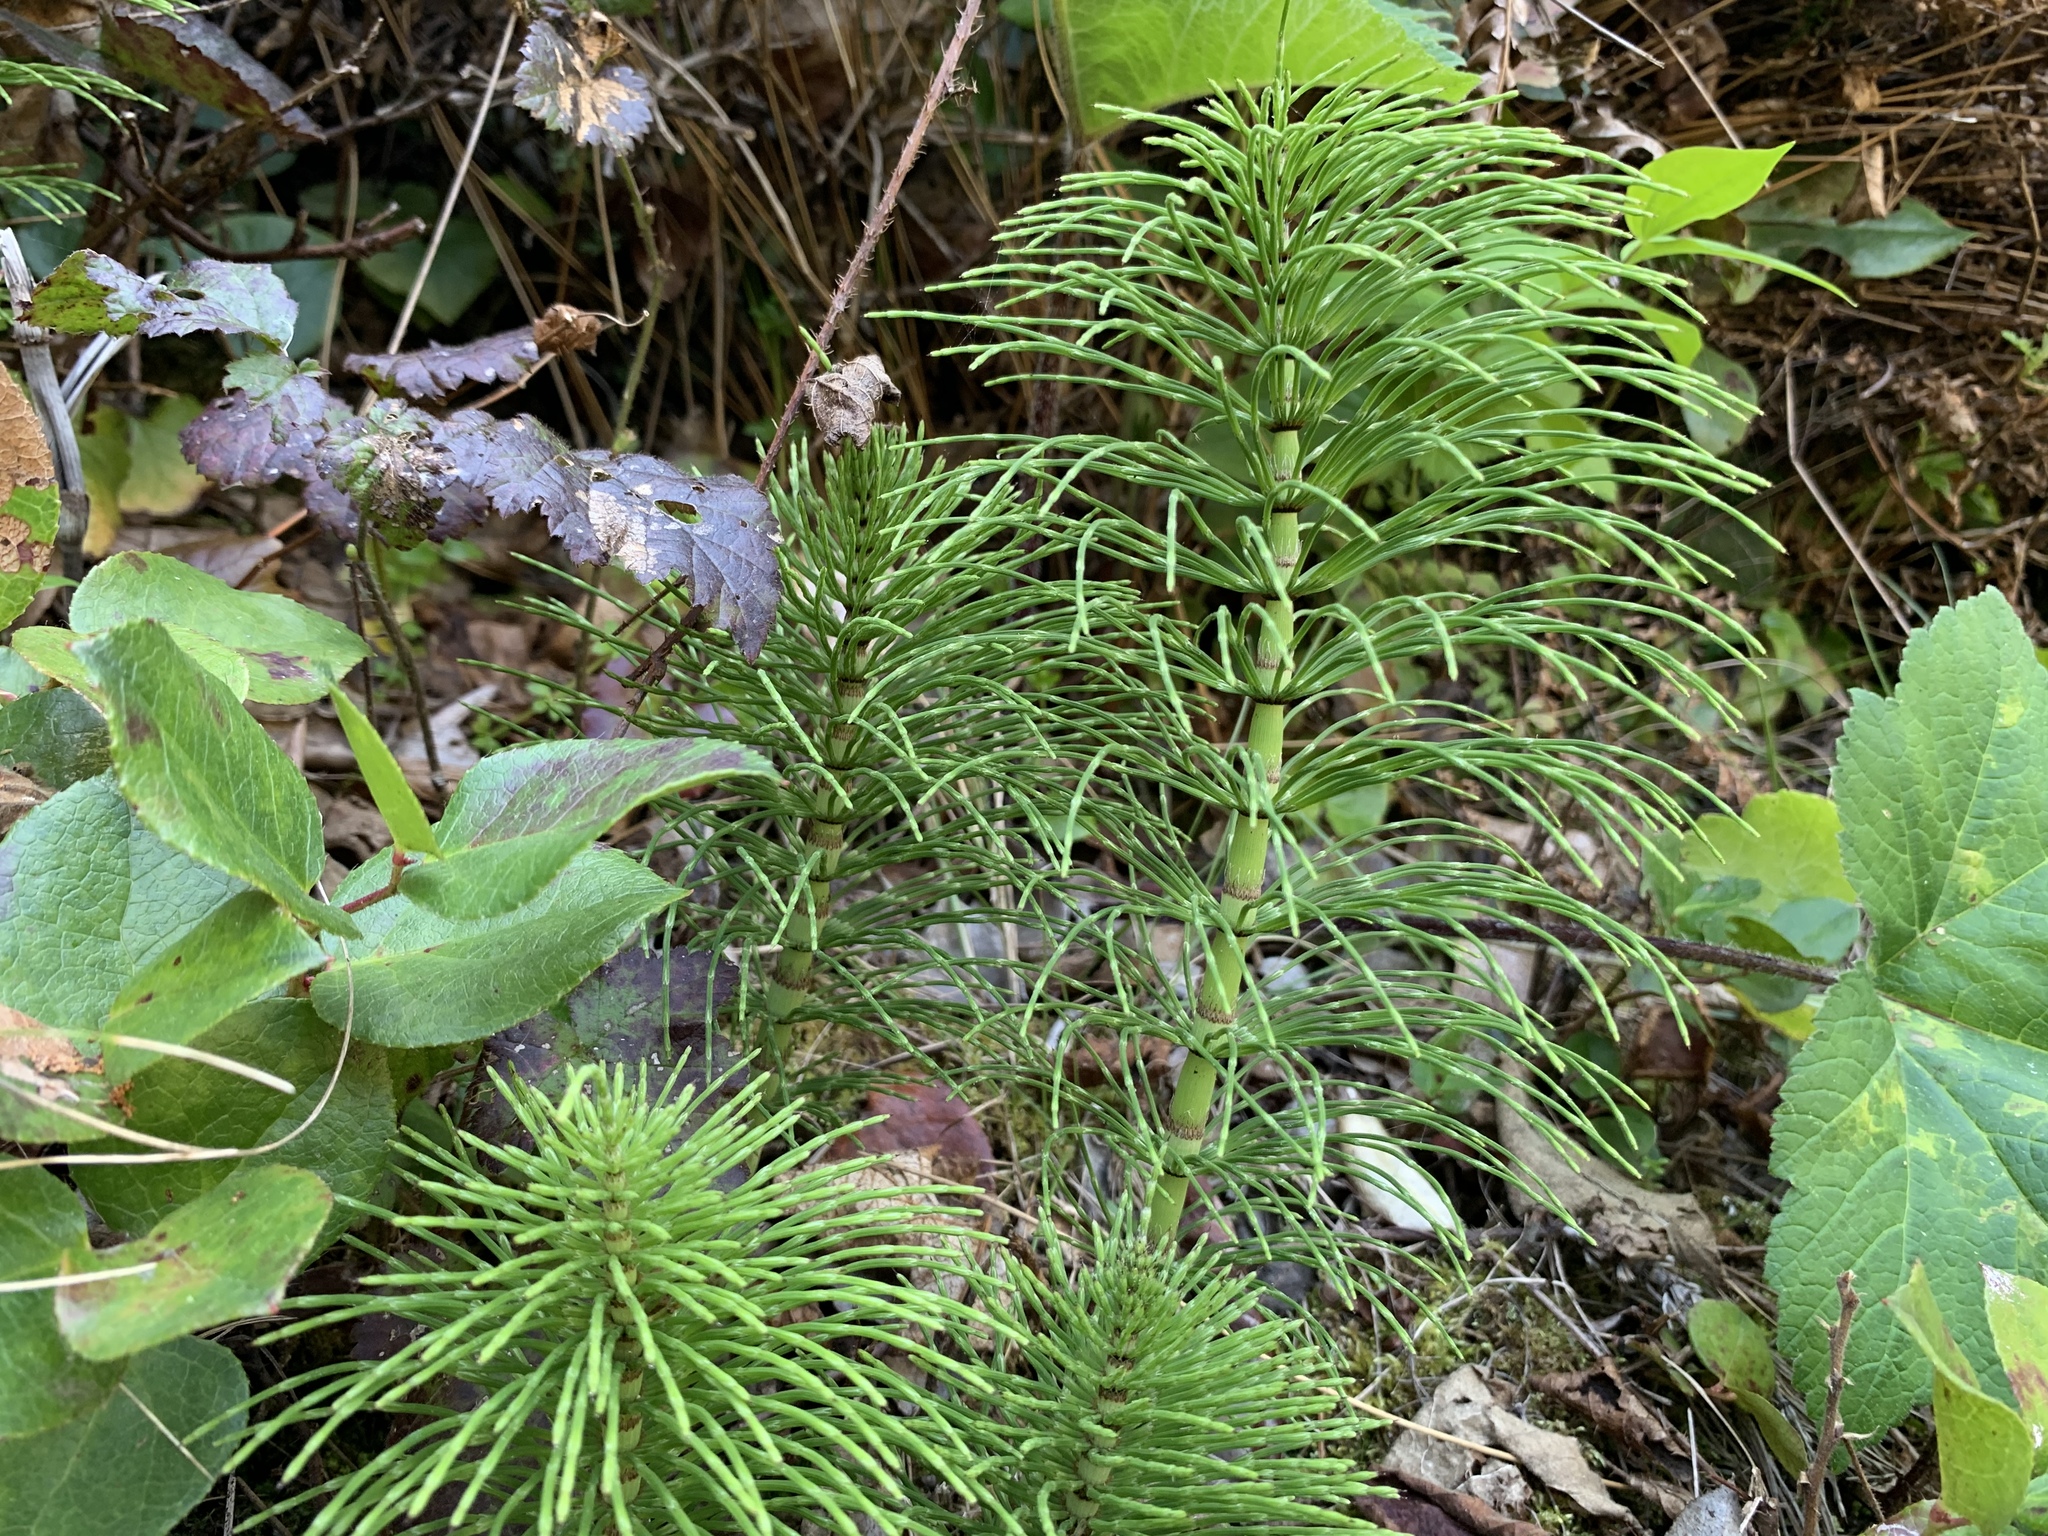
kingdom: Plantae
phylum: Tracheophyta
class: Polypodiopsida
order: Equisetales
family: Equisetaceae
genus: Equisetum
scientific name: Equisetum braunii
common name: Braun's horsetail
